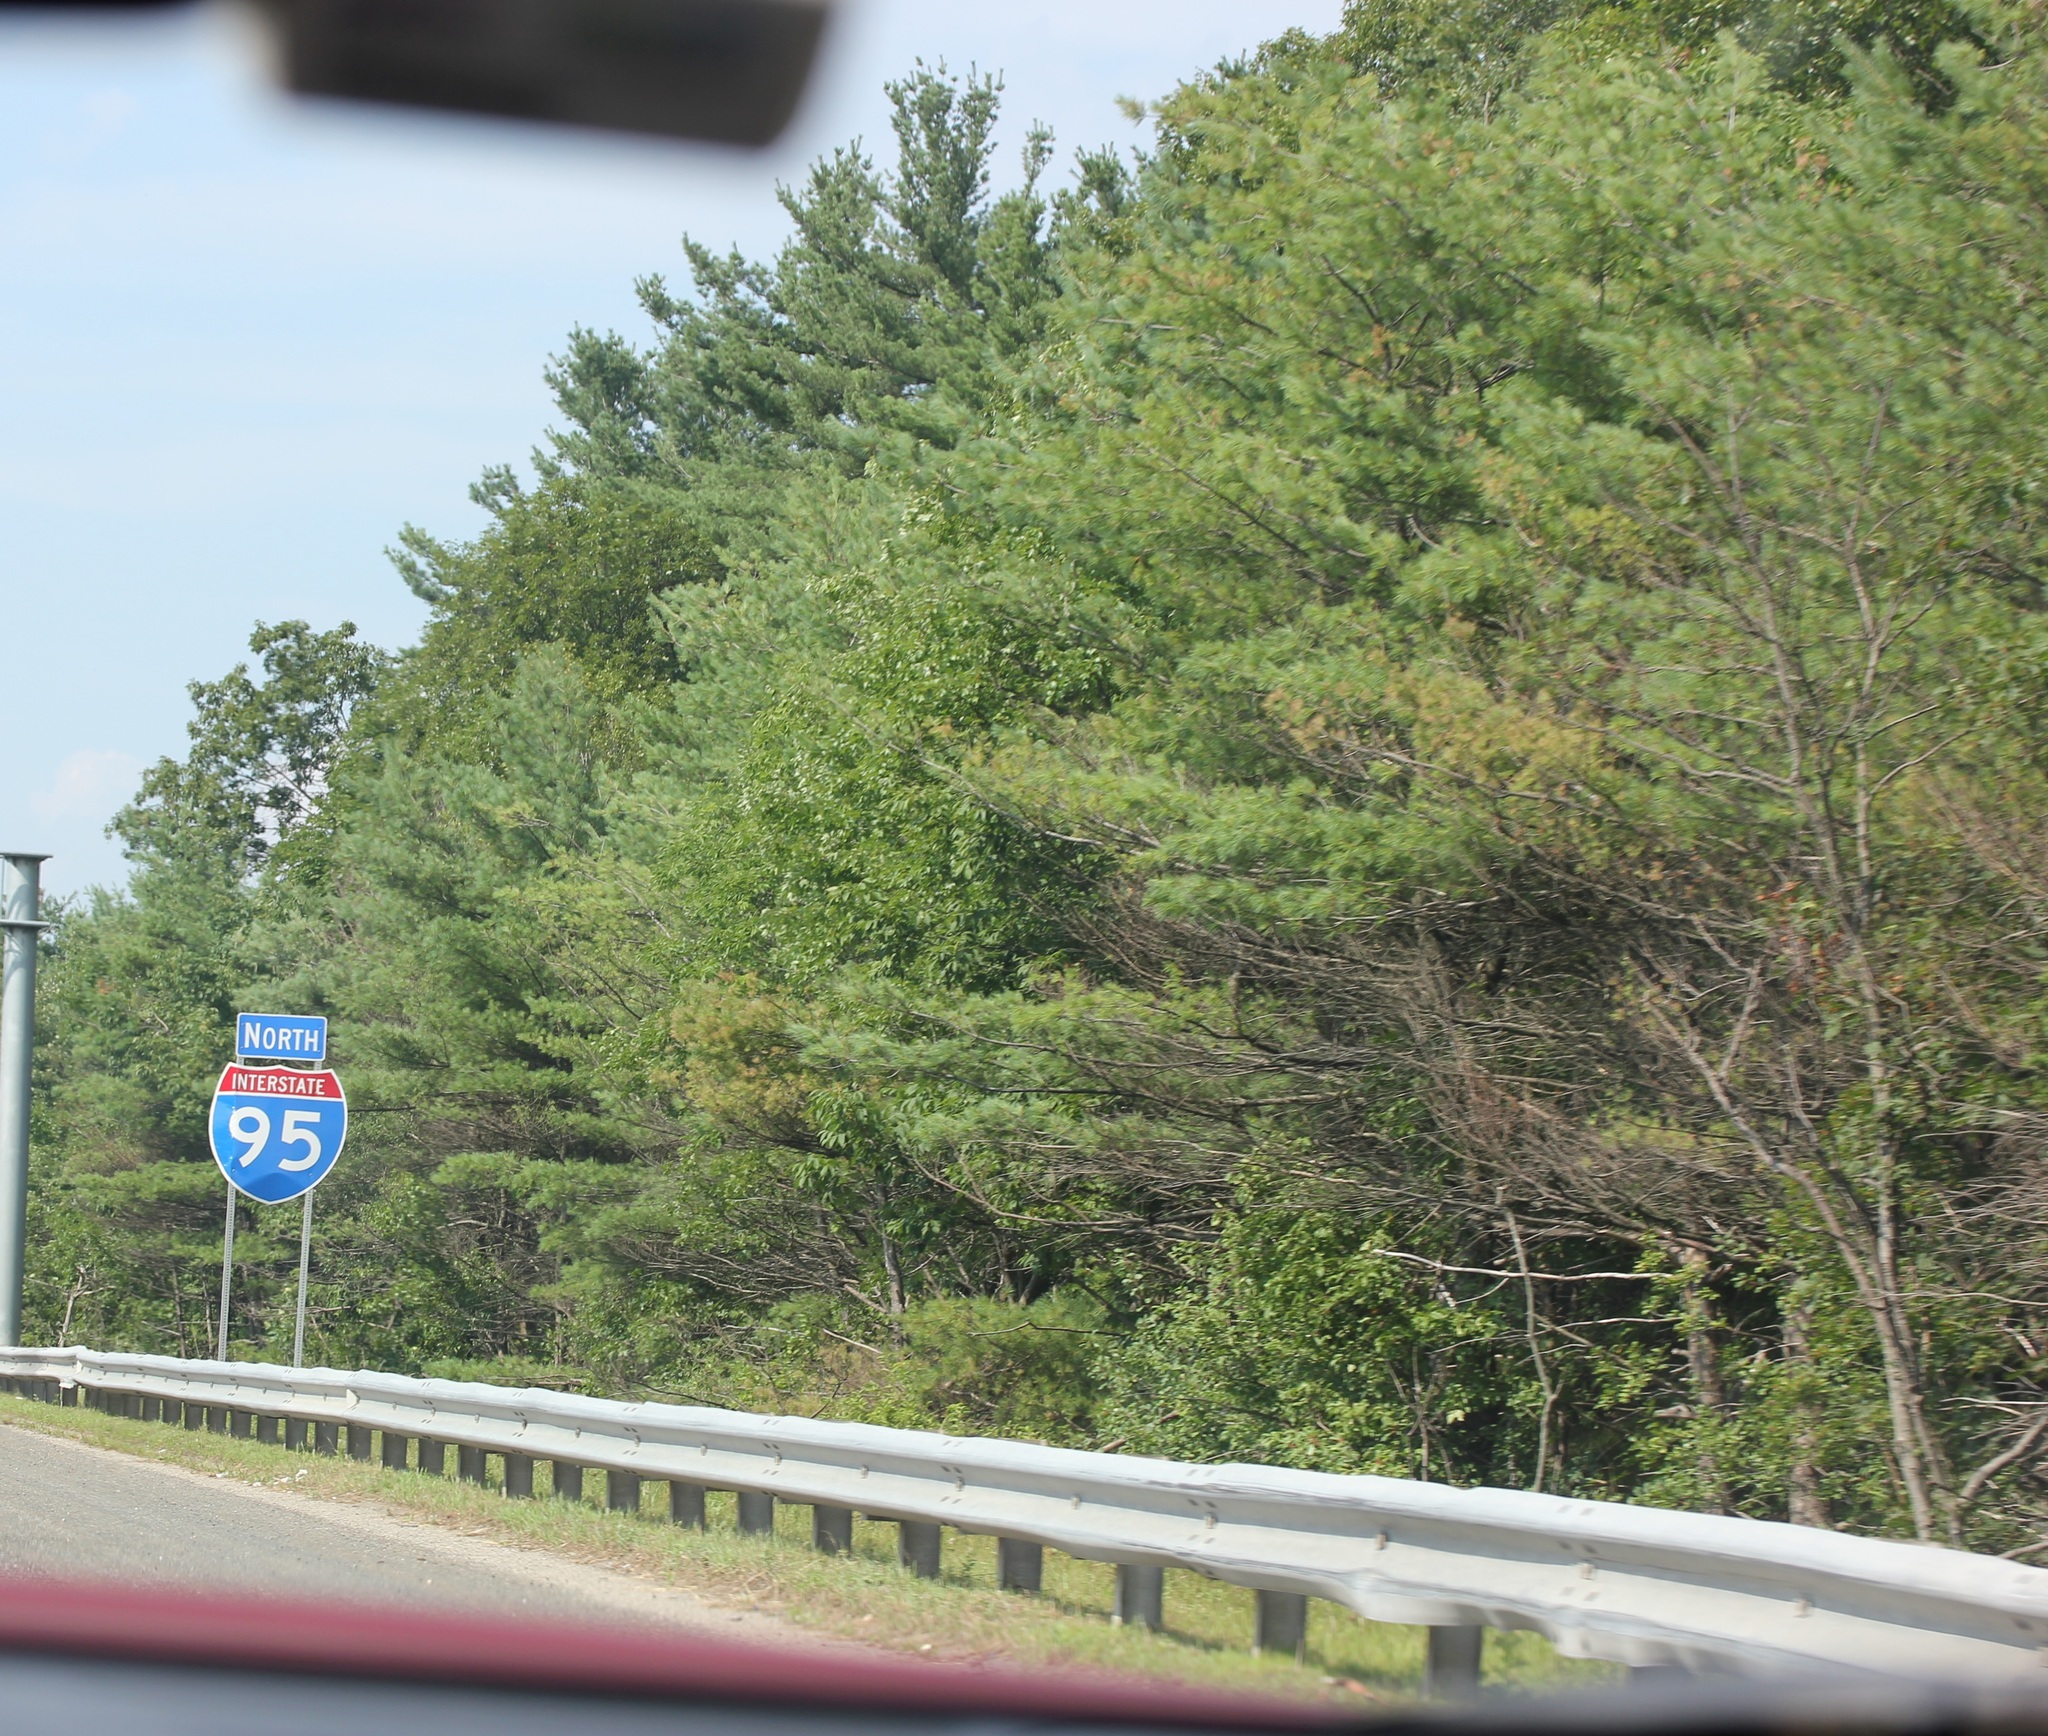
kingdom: Plantae
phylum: Tracheophyta
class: Pinopsida
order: Pinales
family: Pinaceae
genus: Pinus
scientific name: Pinus strobus
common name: Weymouth pine
